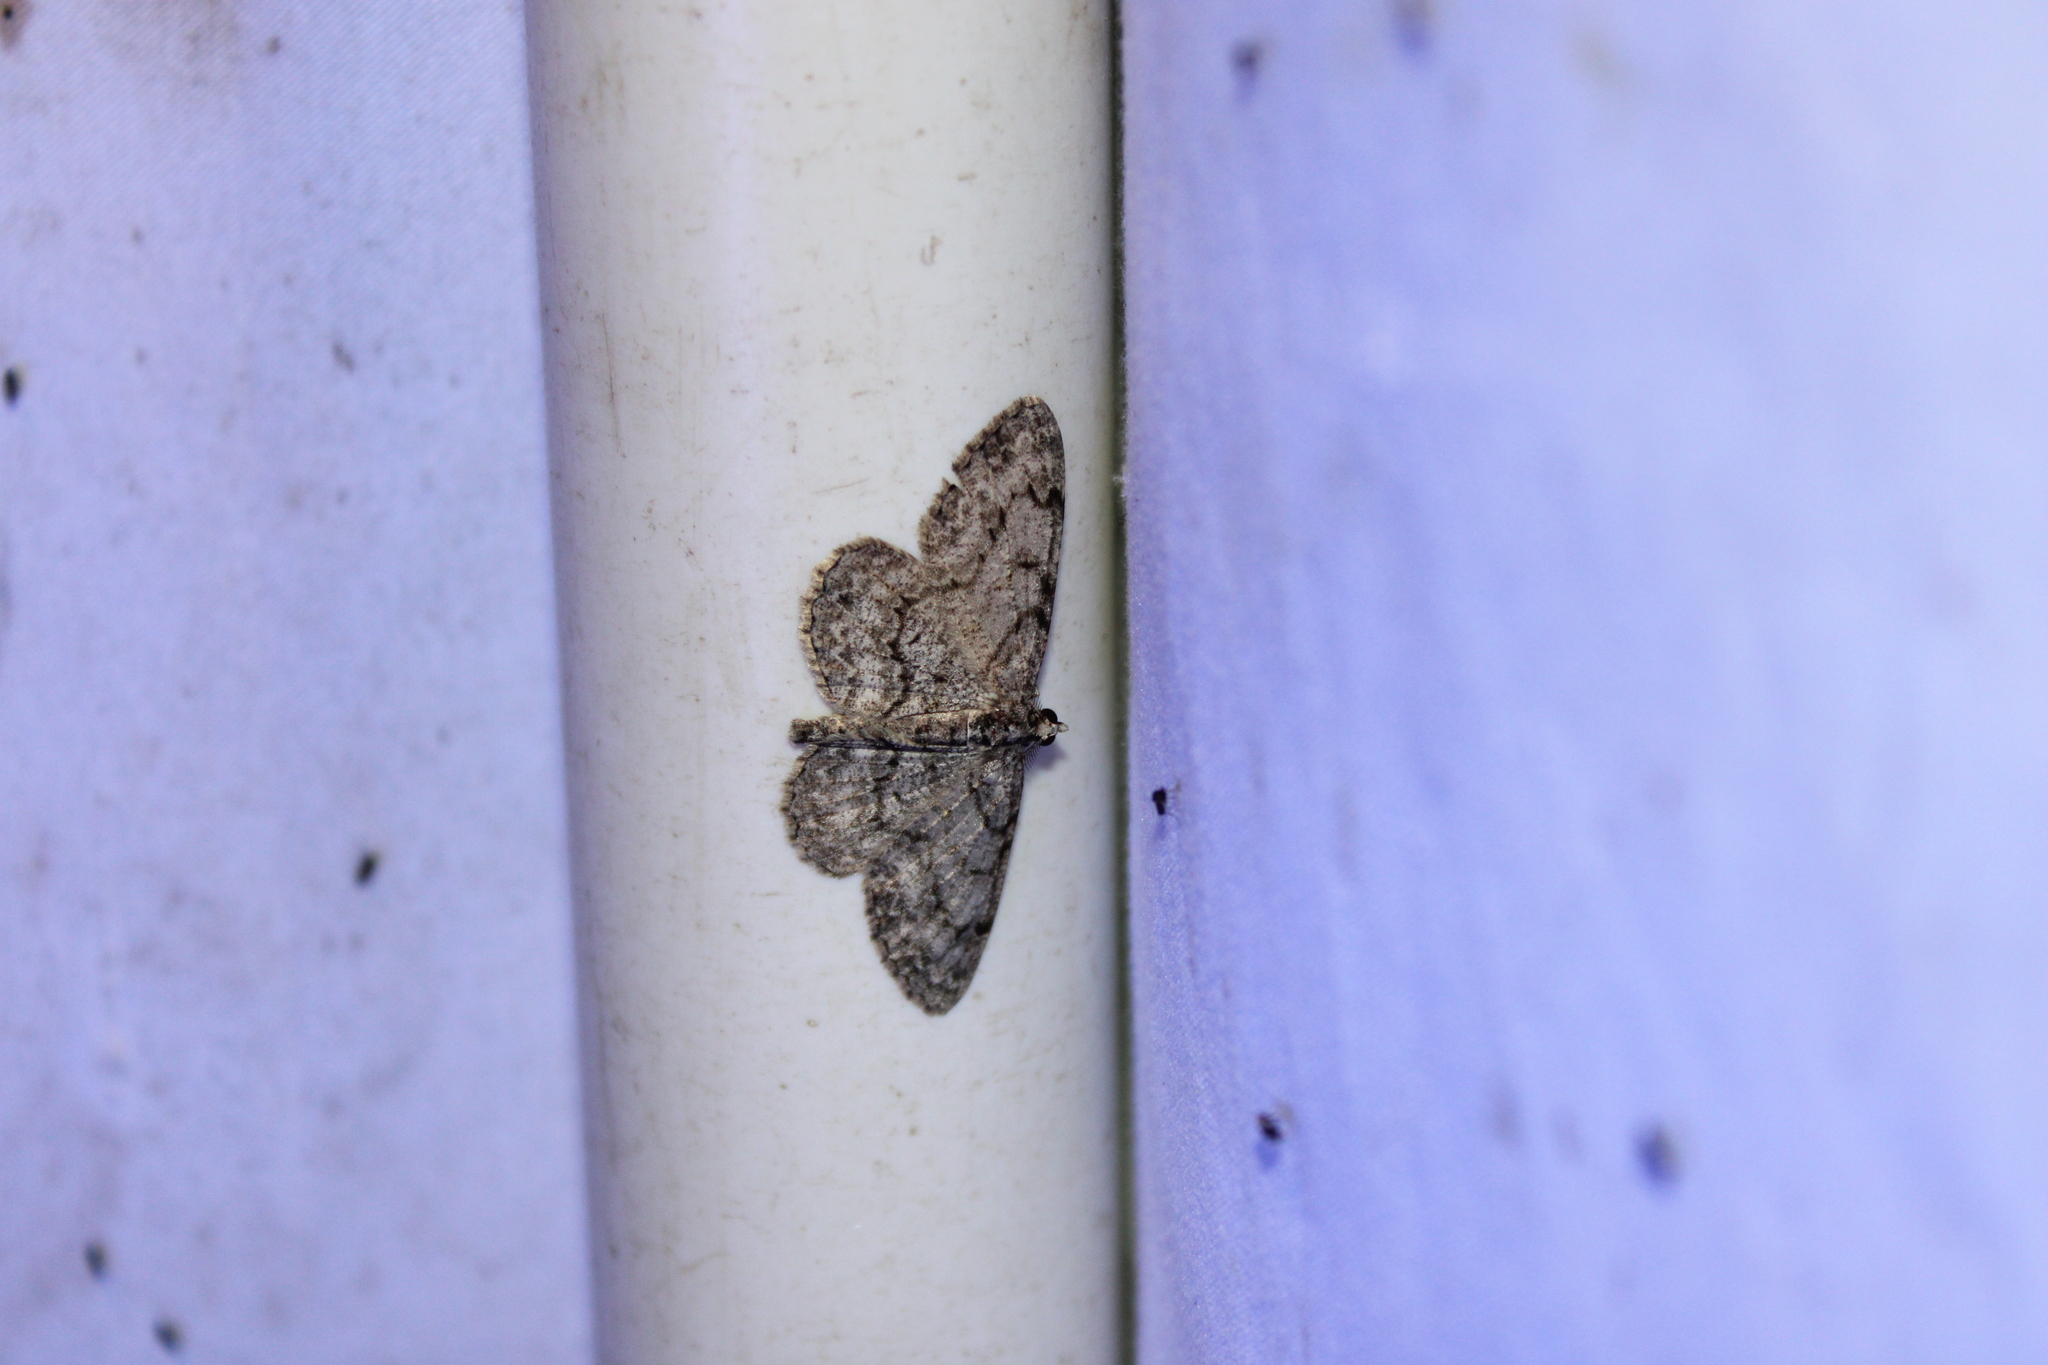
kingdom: Animalia
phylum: Arthropoda
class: Insecta
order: Lepidoptera
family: Geometridae
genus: Protoboarmia
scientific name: Protoboarmia porcelaria
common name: Porcelain gray
